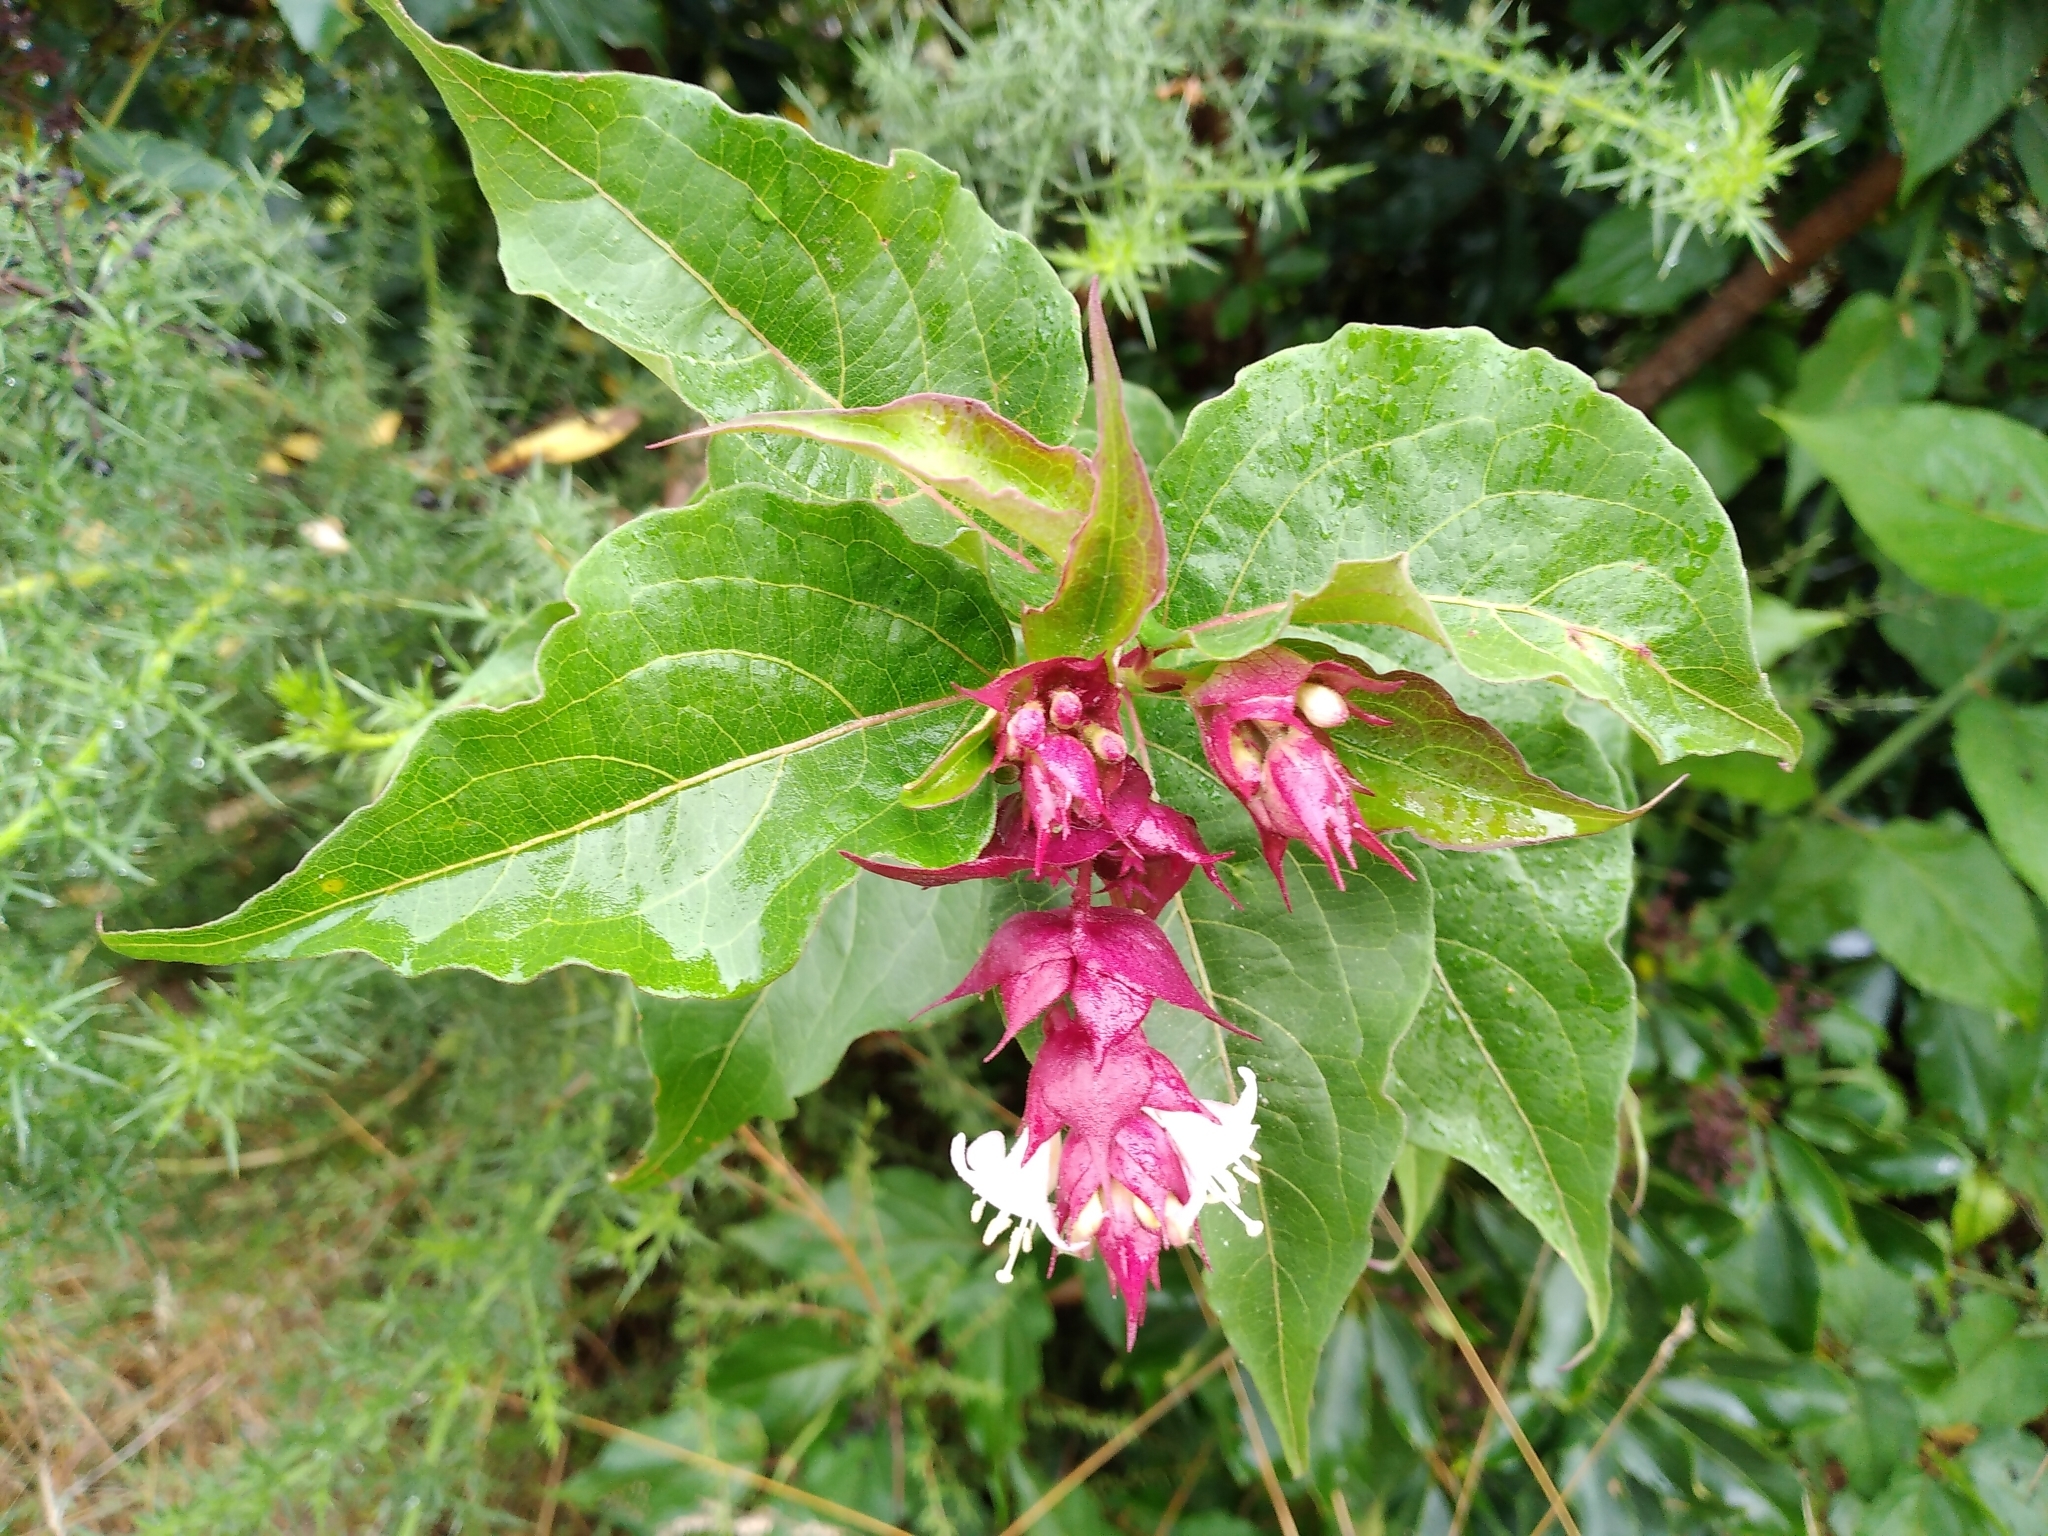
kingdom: Plantae
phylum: Tracheophyta
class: Magnoliopsida
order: Dipsacales
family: Caprifoliaceae
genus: Leycesteria
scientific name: Leycesteria formosa
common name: Himalayan honeysuckle
